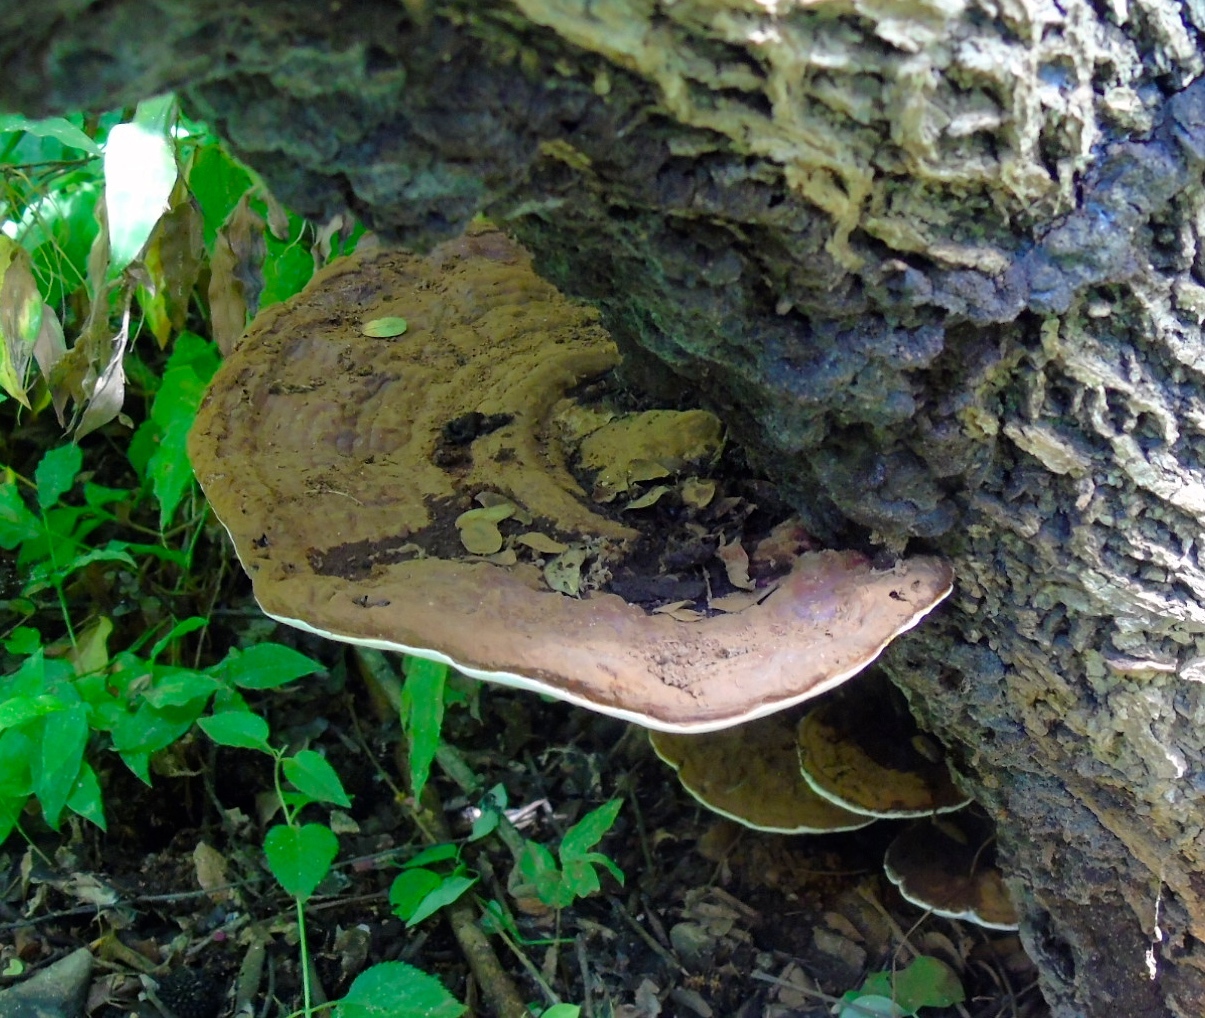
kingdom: Fungi
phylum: Basidiomycota
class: Agaricomycetes
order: Polyporales
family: Polyporaceae
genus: Ganoderma
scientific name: Ganoderma applanatum
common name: Artist's bracket
